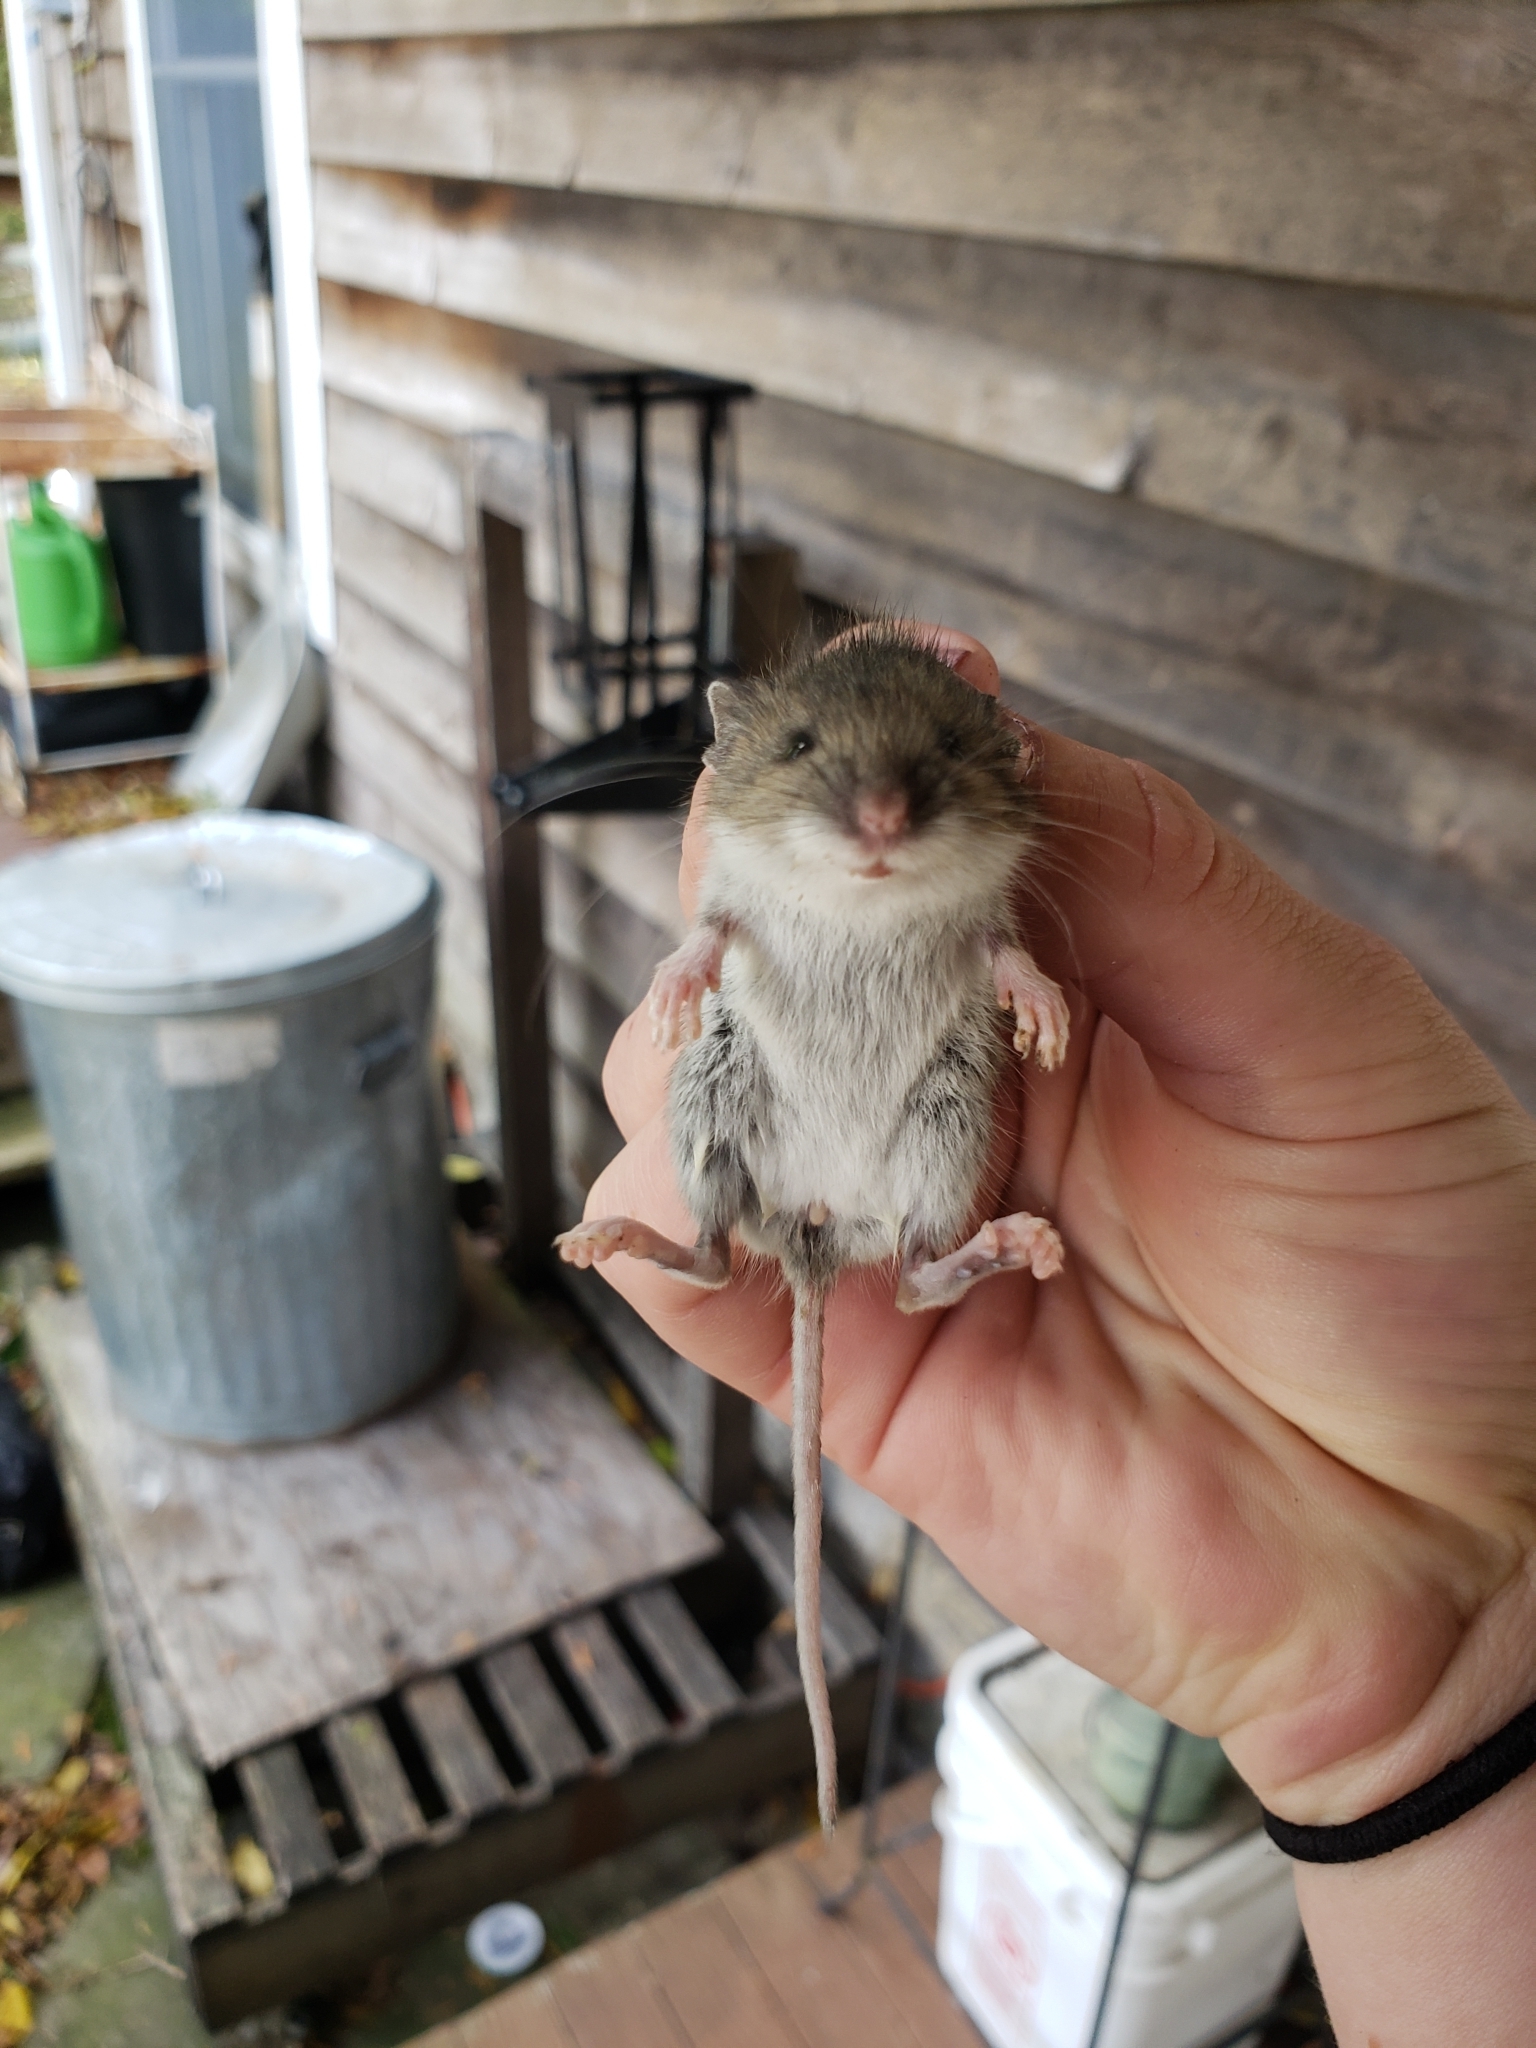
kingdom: Animalia
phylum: Chordata
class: Mammalia
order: Rodentia
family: Cricetidae
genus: Peromyscus
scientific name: Peromyscus maniculatus
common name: Deer mouse
